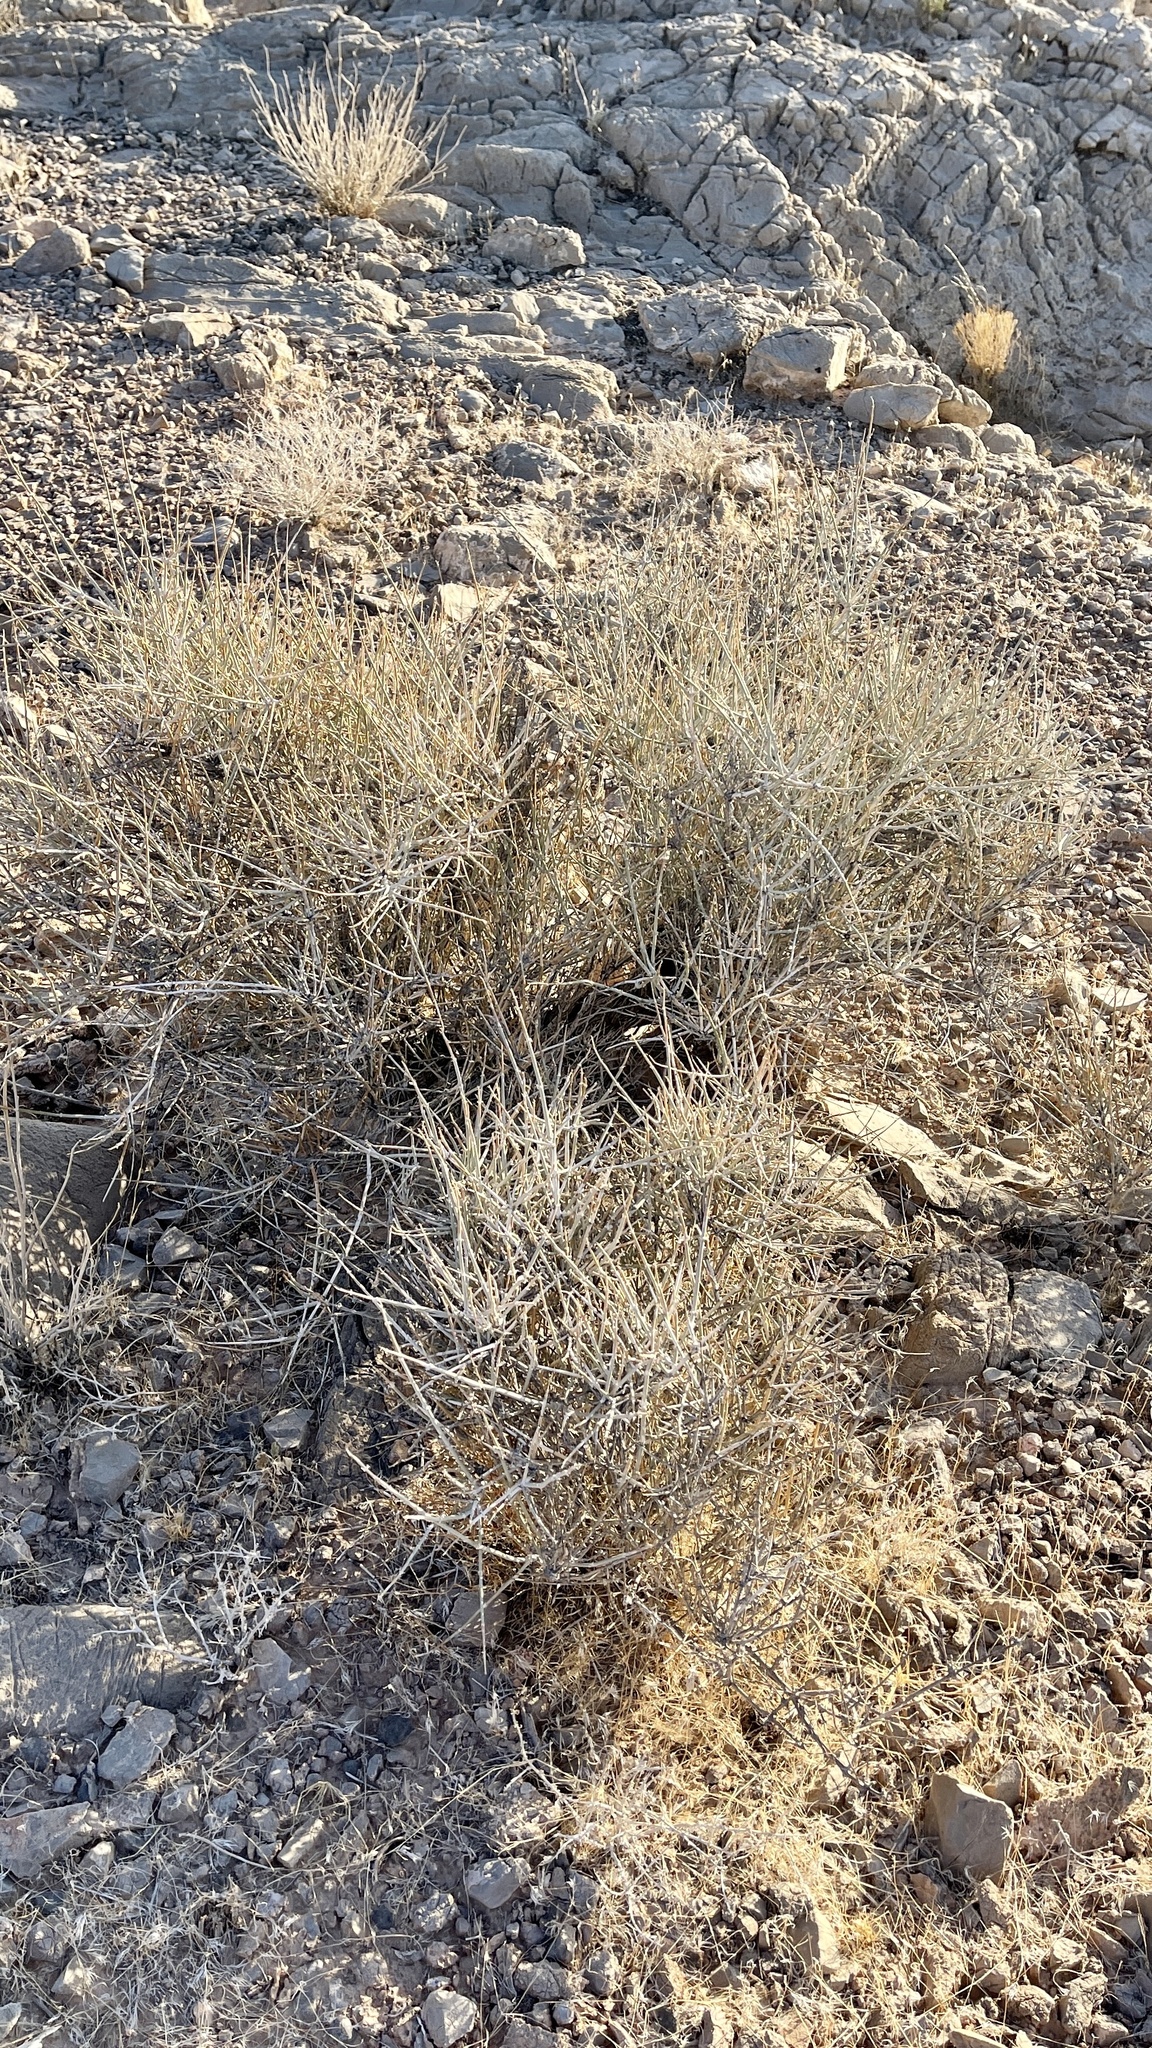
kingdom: Plantae
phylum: Tracheophyta
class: Gnetopsida
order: Ephedrales
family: Ephedraceae
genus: Ephedra
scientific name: Ephedra nevadensis
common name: Gray ephedra
